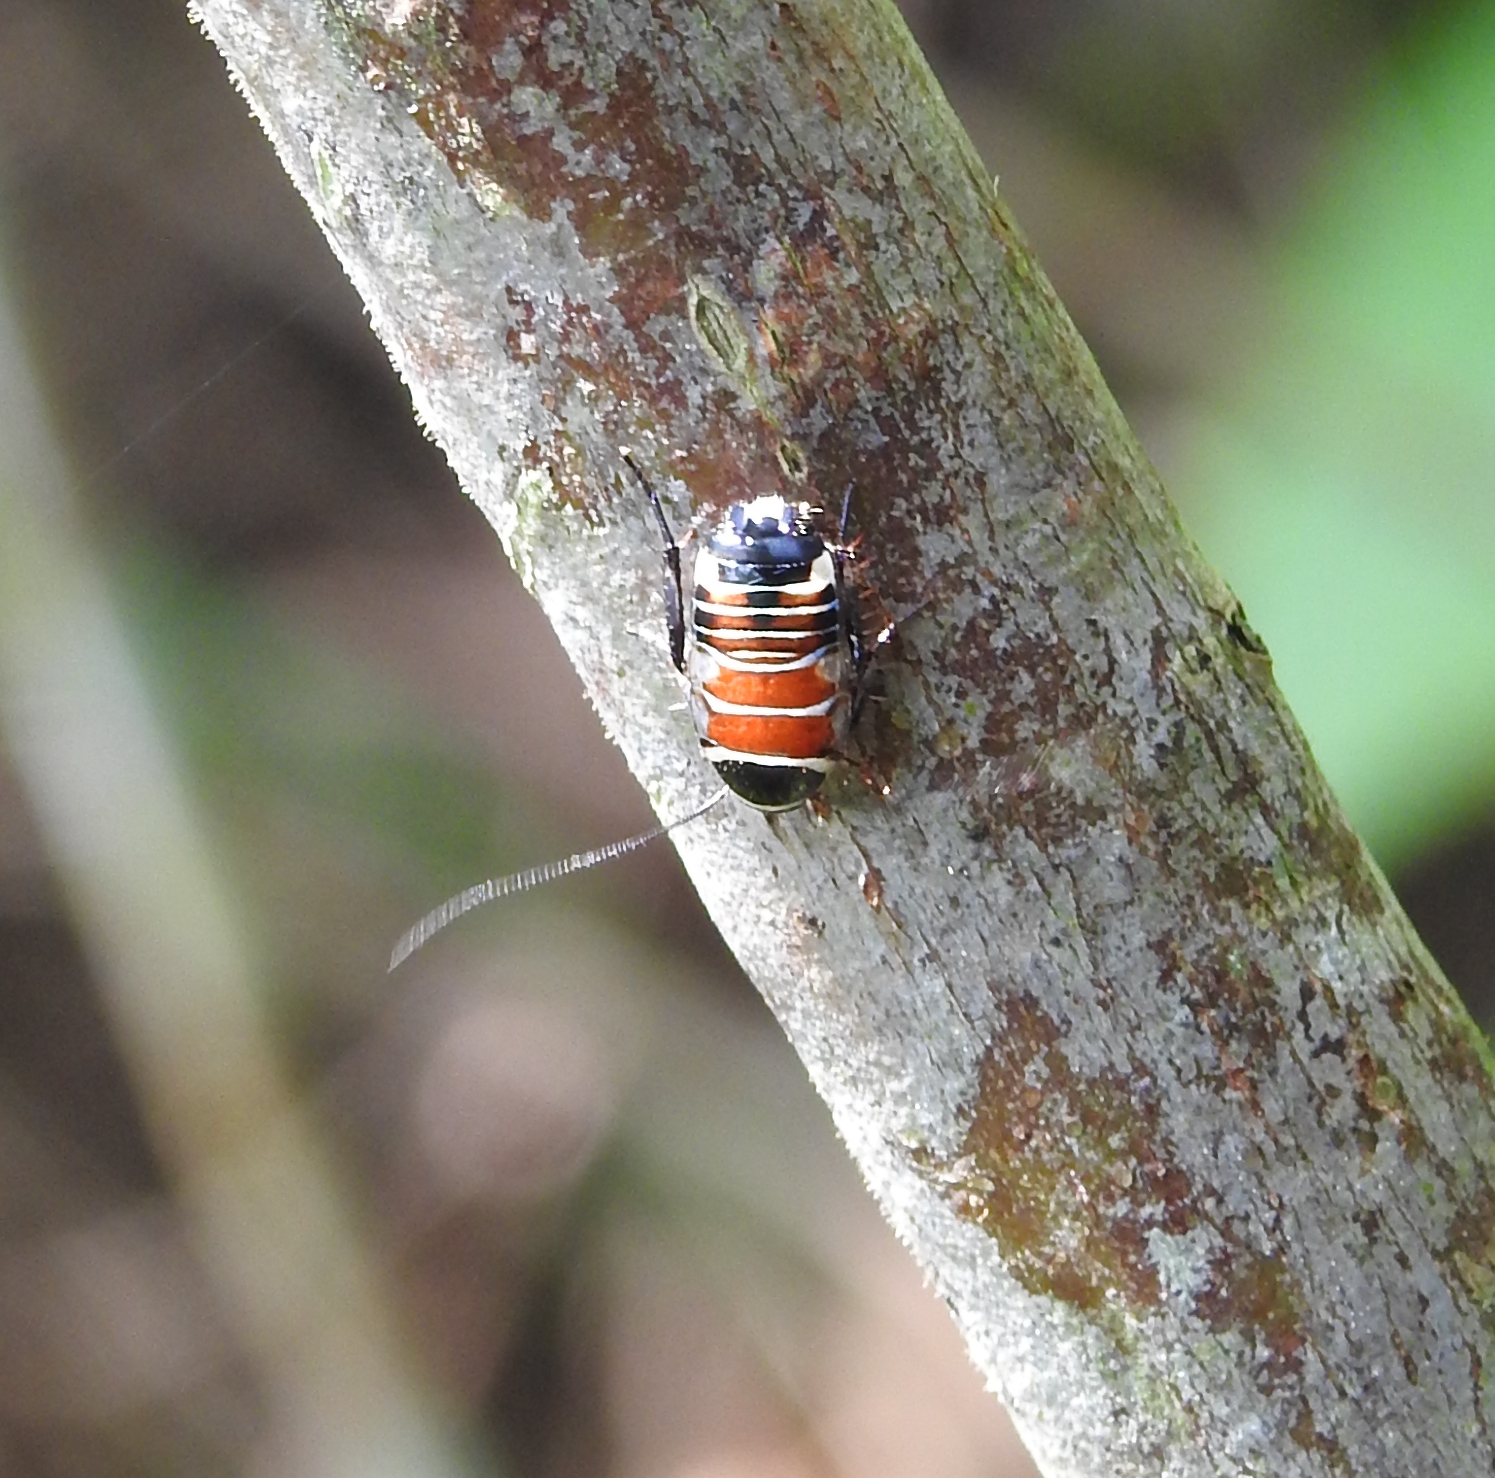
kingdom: Animalia
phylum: Arthropoda
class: Insecta
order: Blattodea
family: Ectobiidae
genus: Hemithyrsocera
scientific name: Hemithyrsocera vittata
